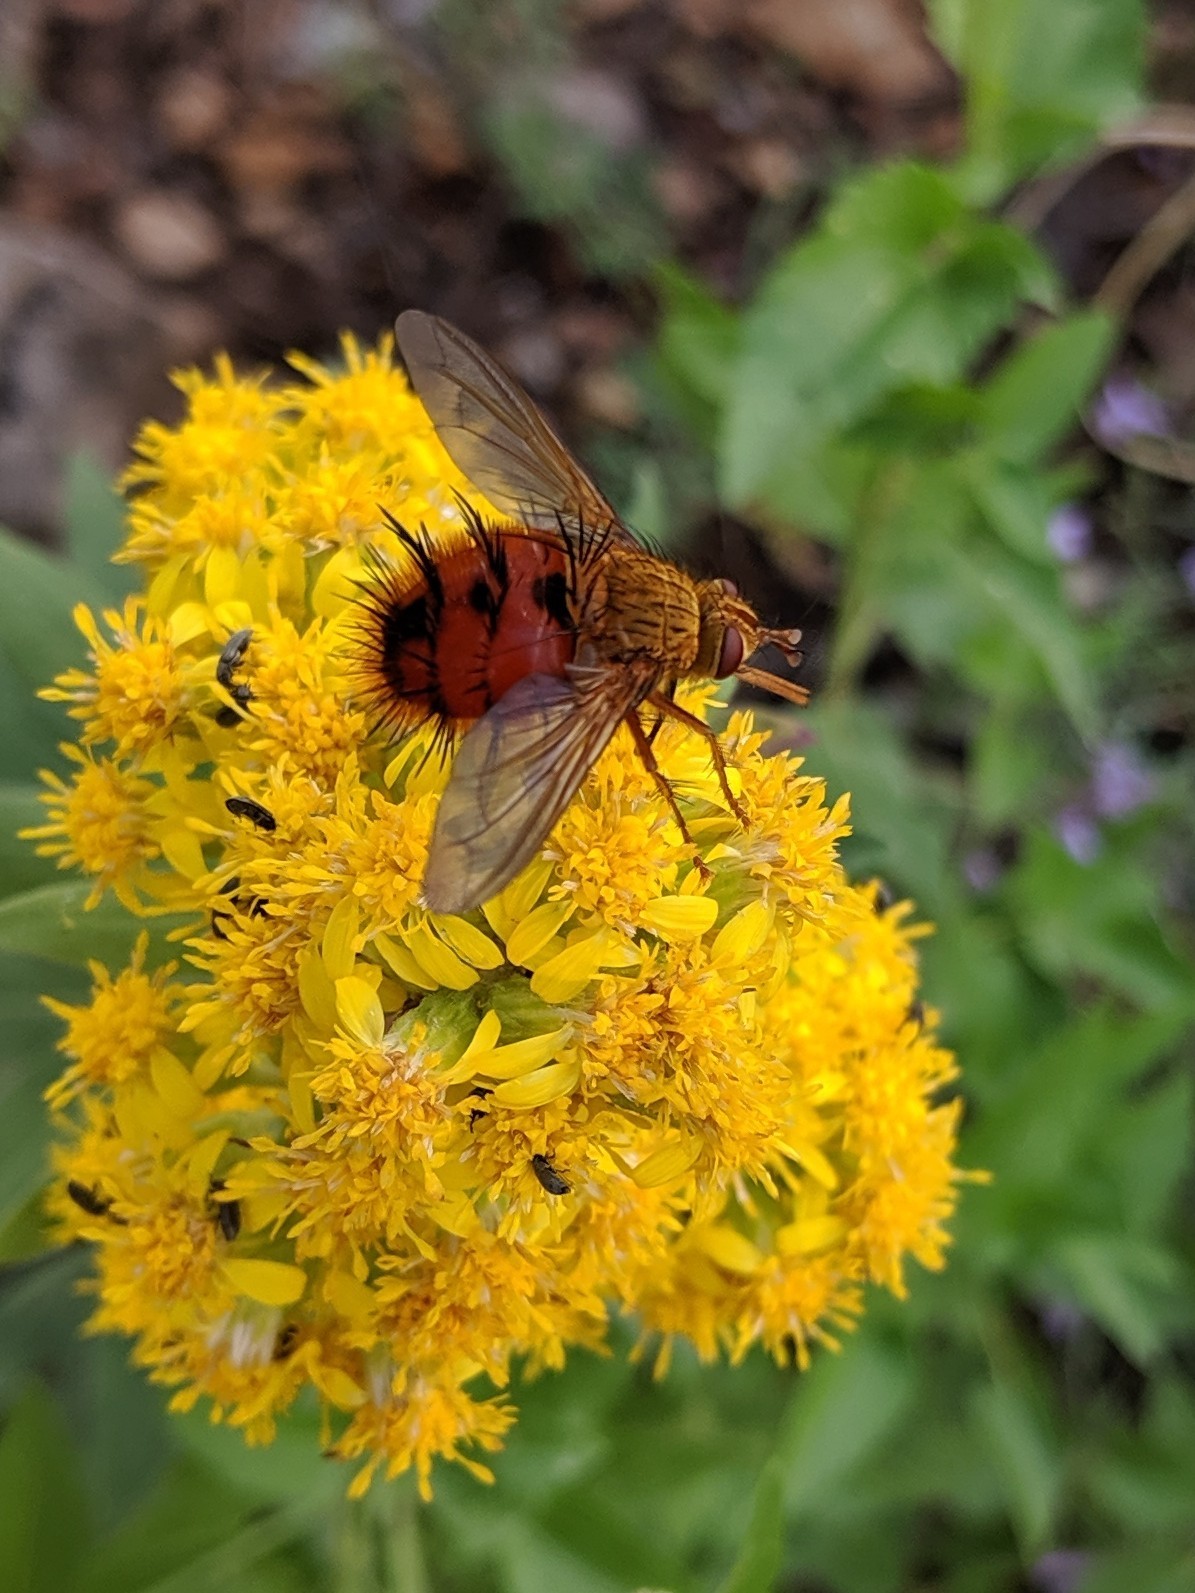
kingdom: Animalia
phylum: Arthropoda
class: Insecta
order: Diptera
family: Tachinidae
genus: Adejeania
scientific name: Adejeania vexatrix
